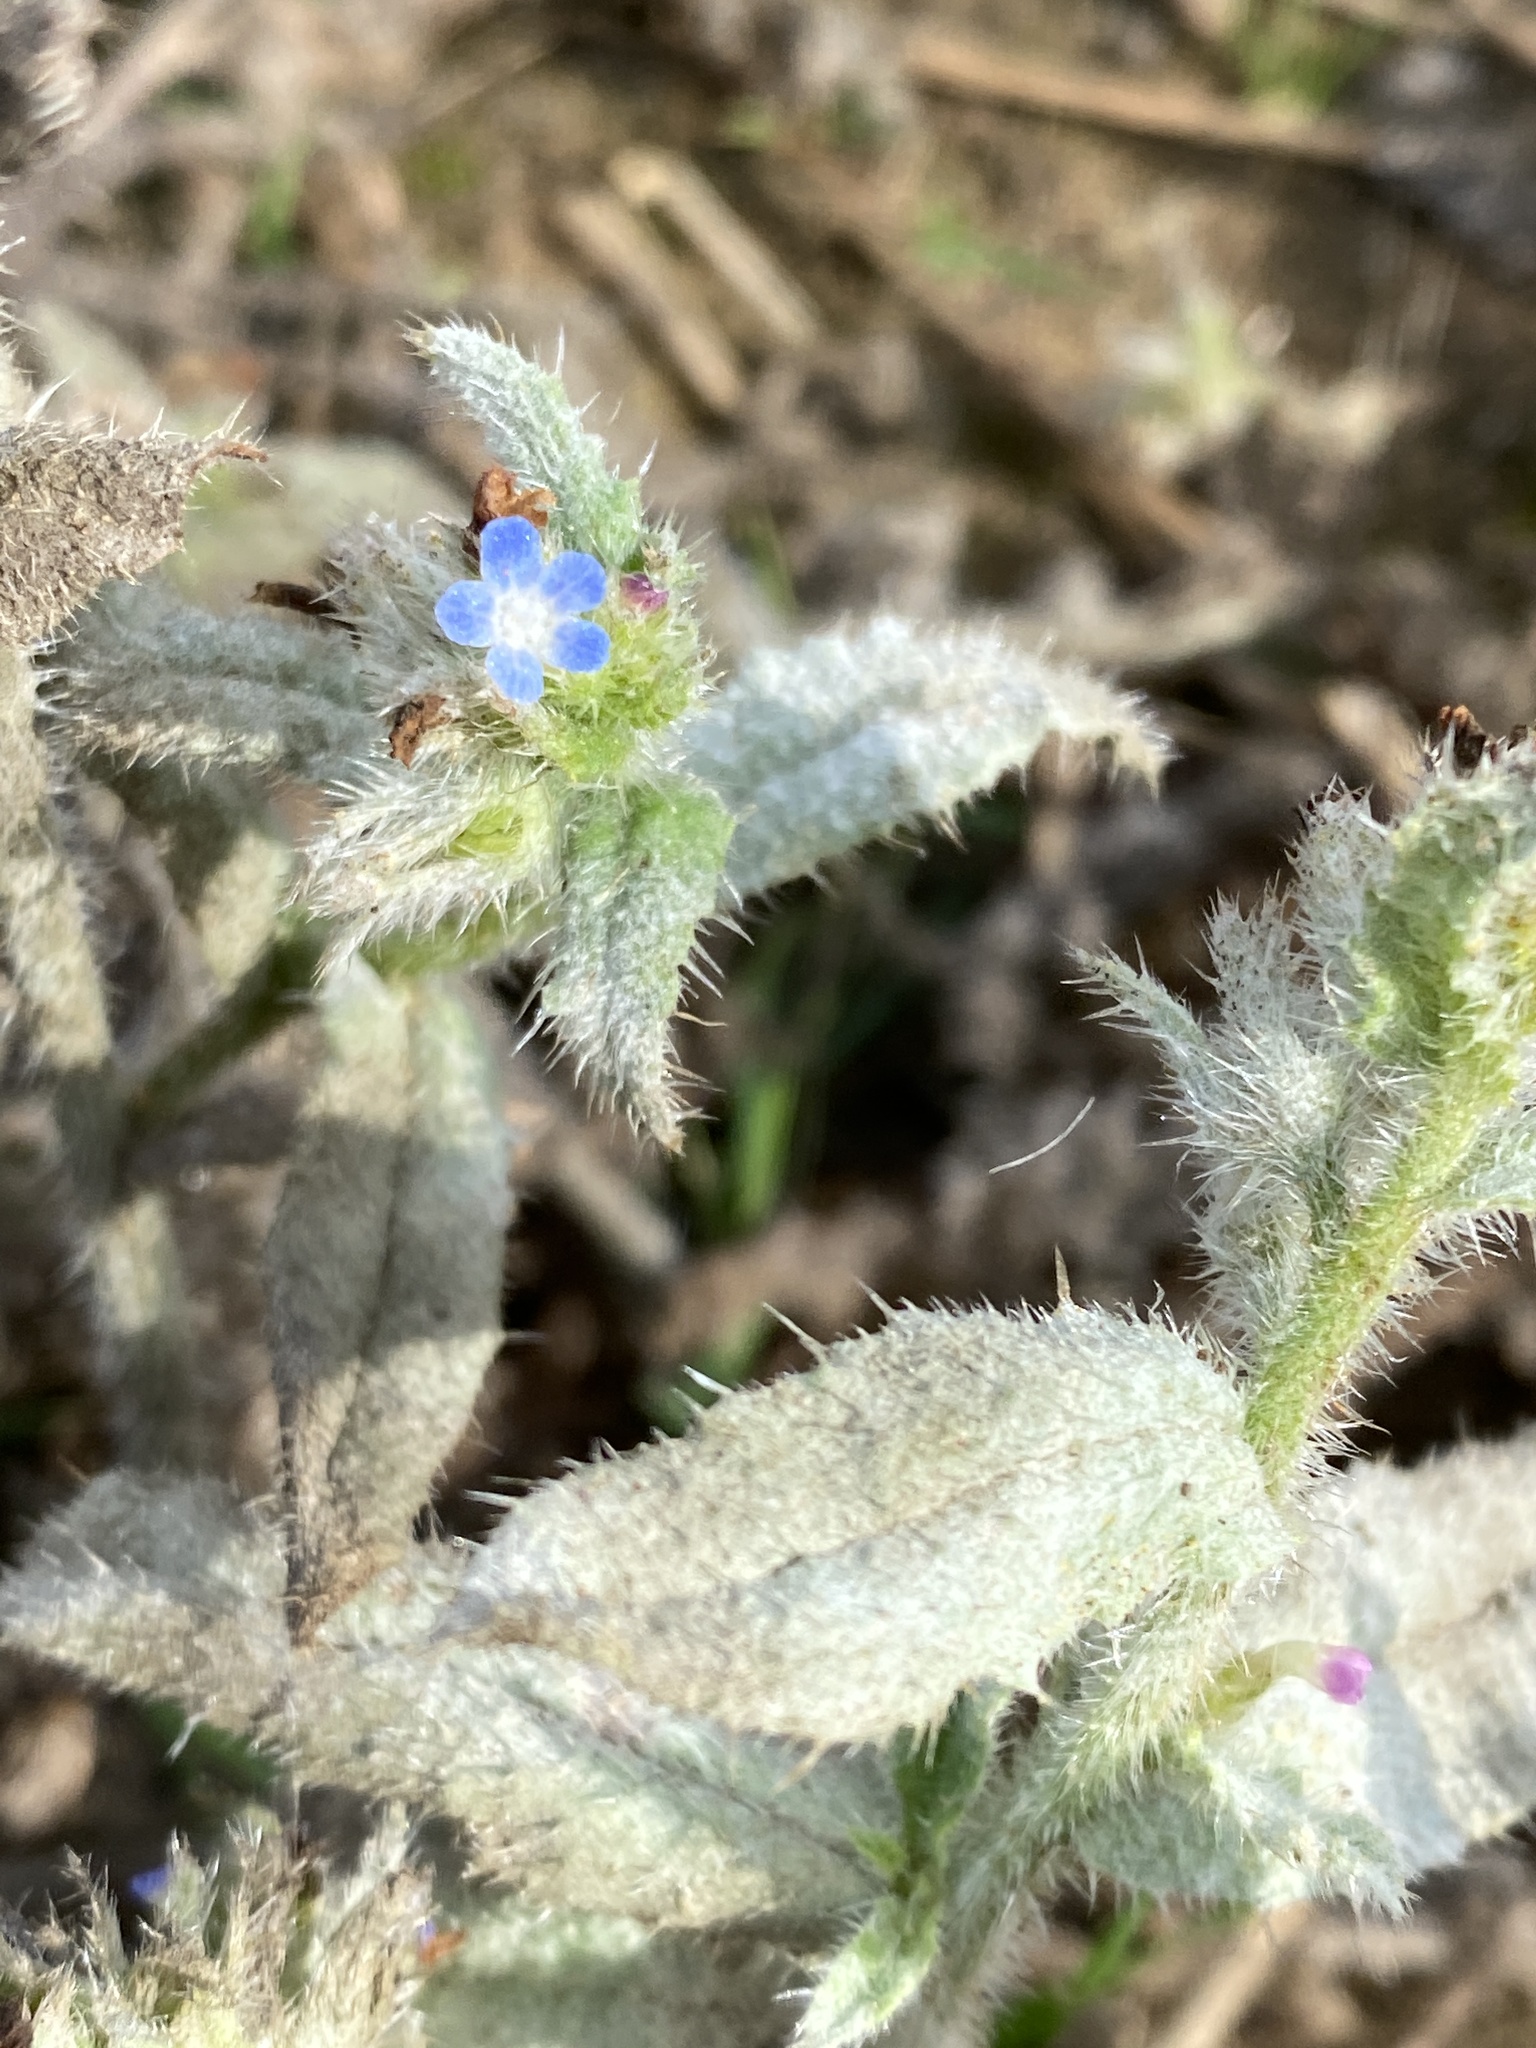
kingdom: Plantae
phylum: Tracheophyta
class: Magnoliopsida
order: Boraginales
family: Boraginaceae
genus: Lycopsis
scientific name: Lycopsis arvensis
